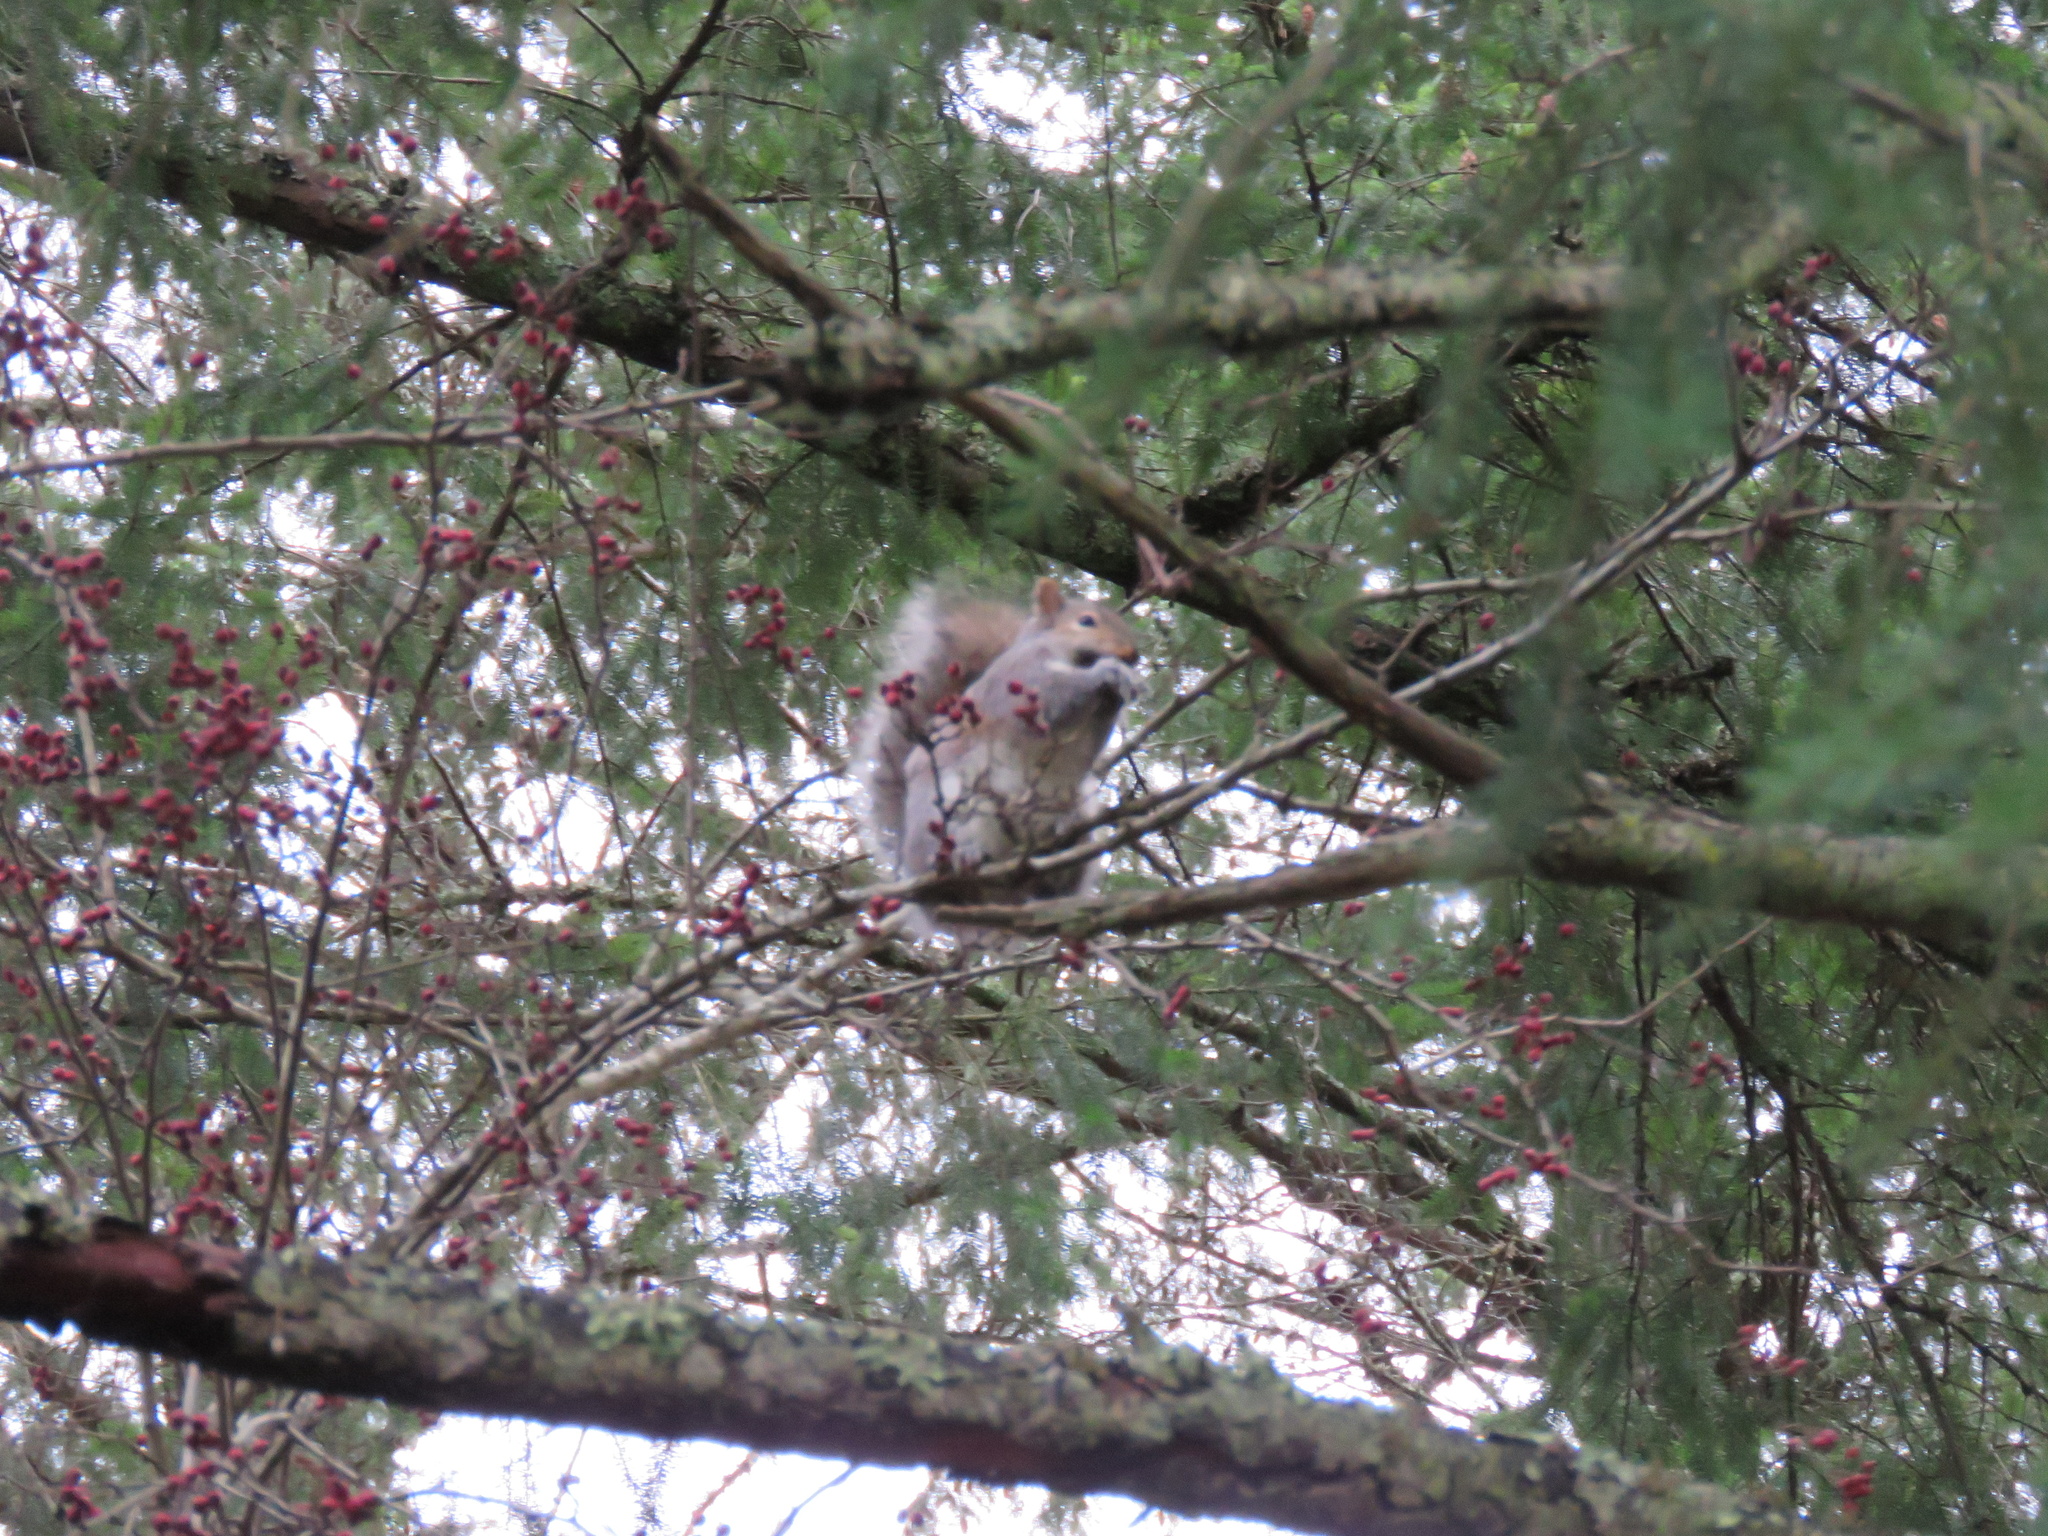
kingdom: Animalia
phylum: Chordata
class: Mammalia
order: Rodentia
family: Sciuridae
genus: Sciurus
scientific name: Sciurus carolinensis
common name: Eastern gray squirrel
